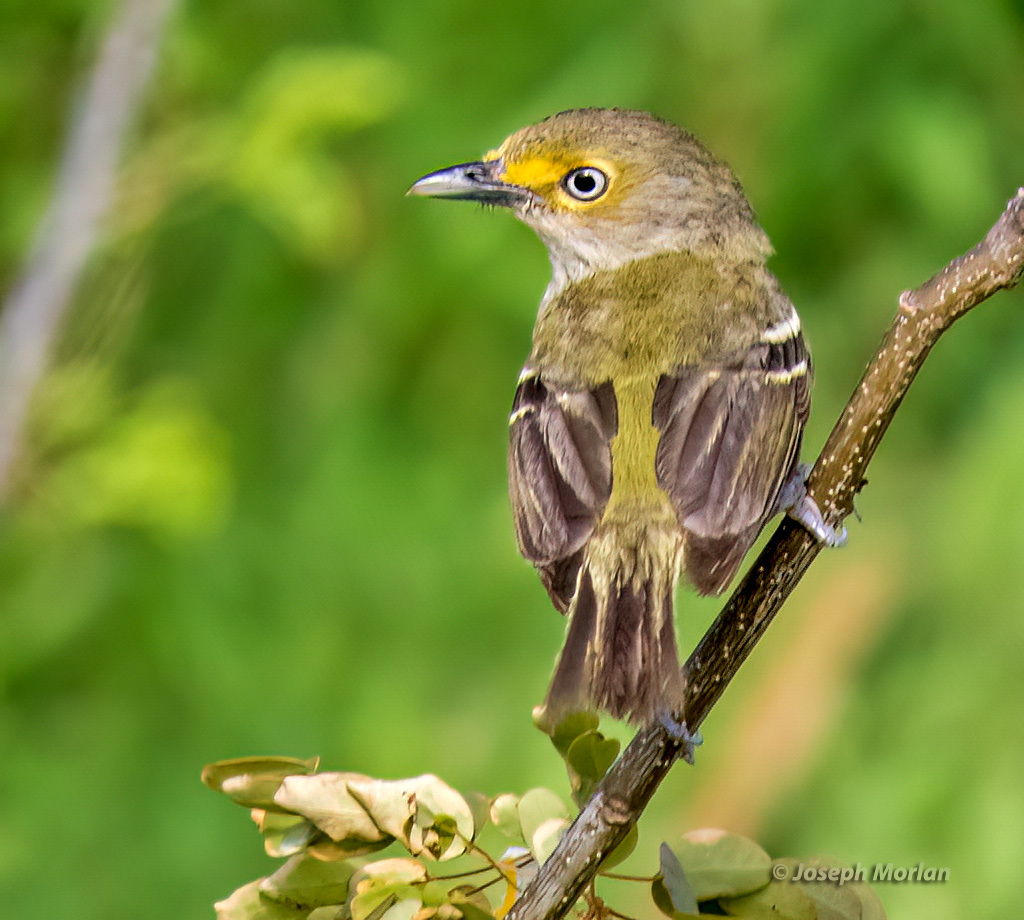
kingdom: Animalia
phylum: Chordata
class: Aves
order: Passeriformes
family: Vireonidae
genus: Vireo
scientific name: Vireo griseus
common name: White-eyed vireo
